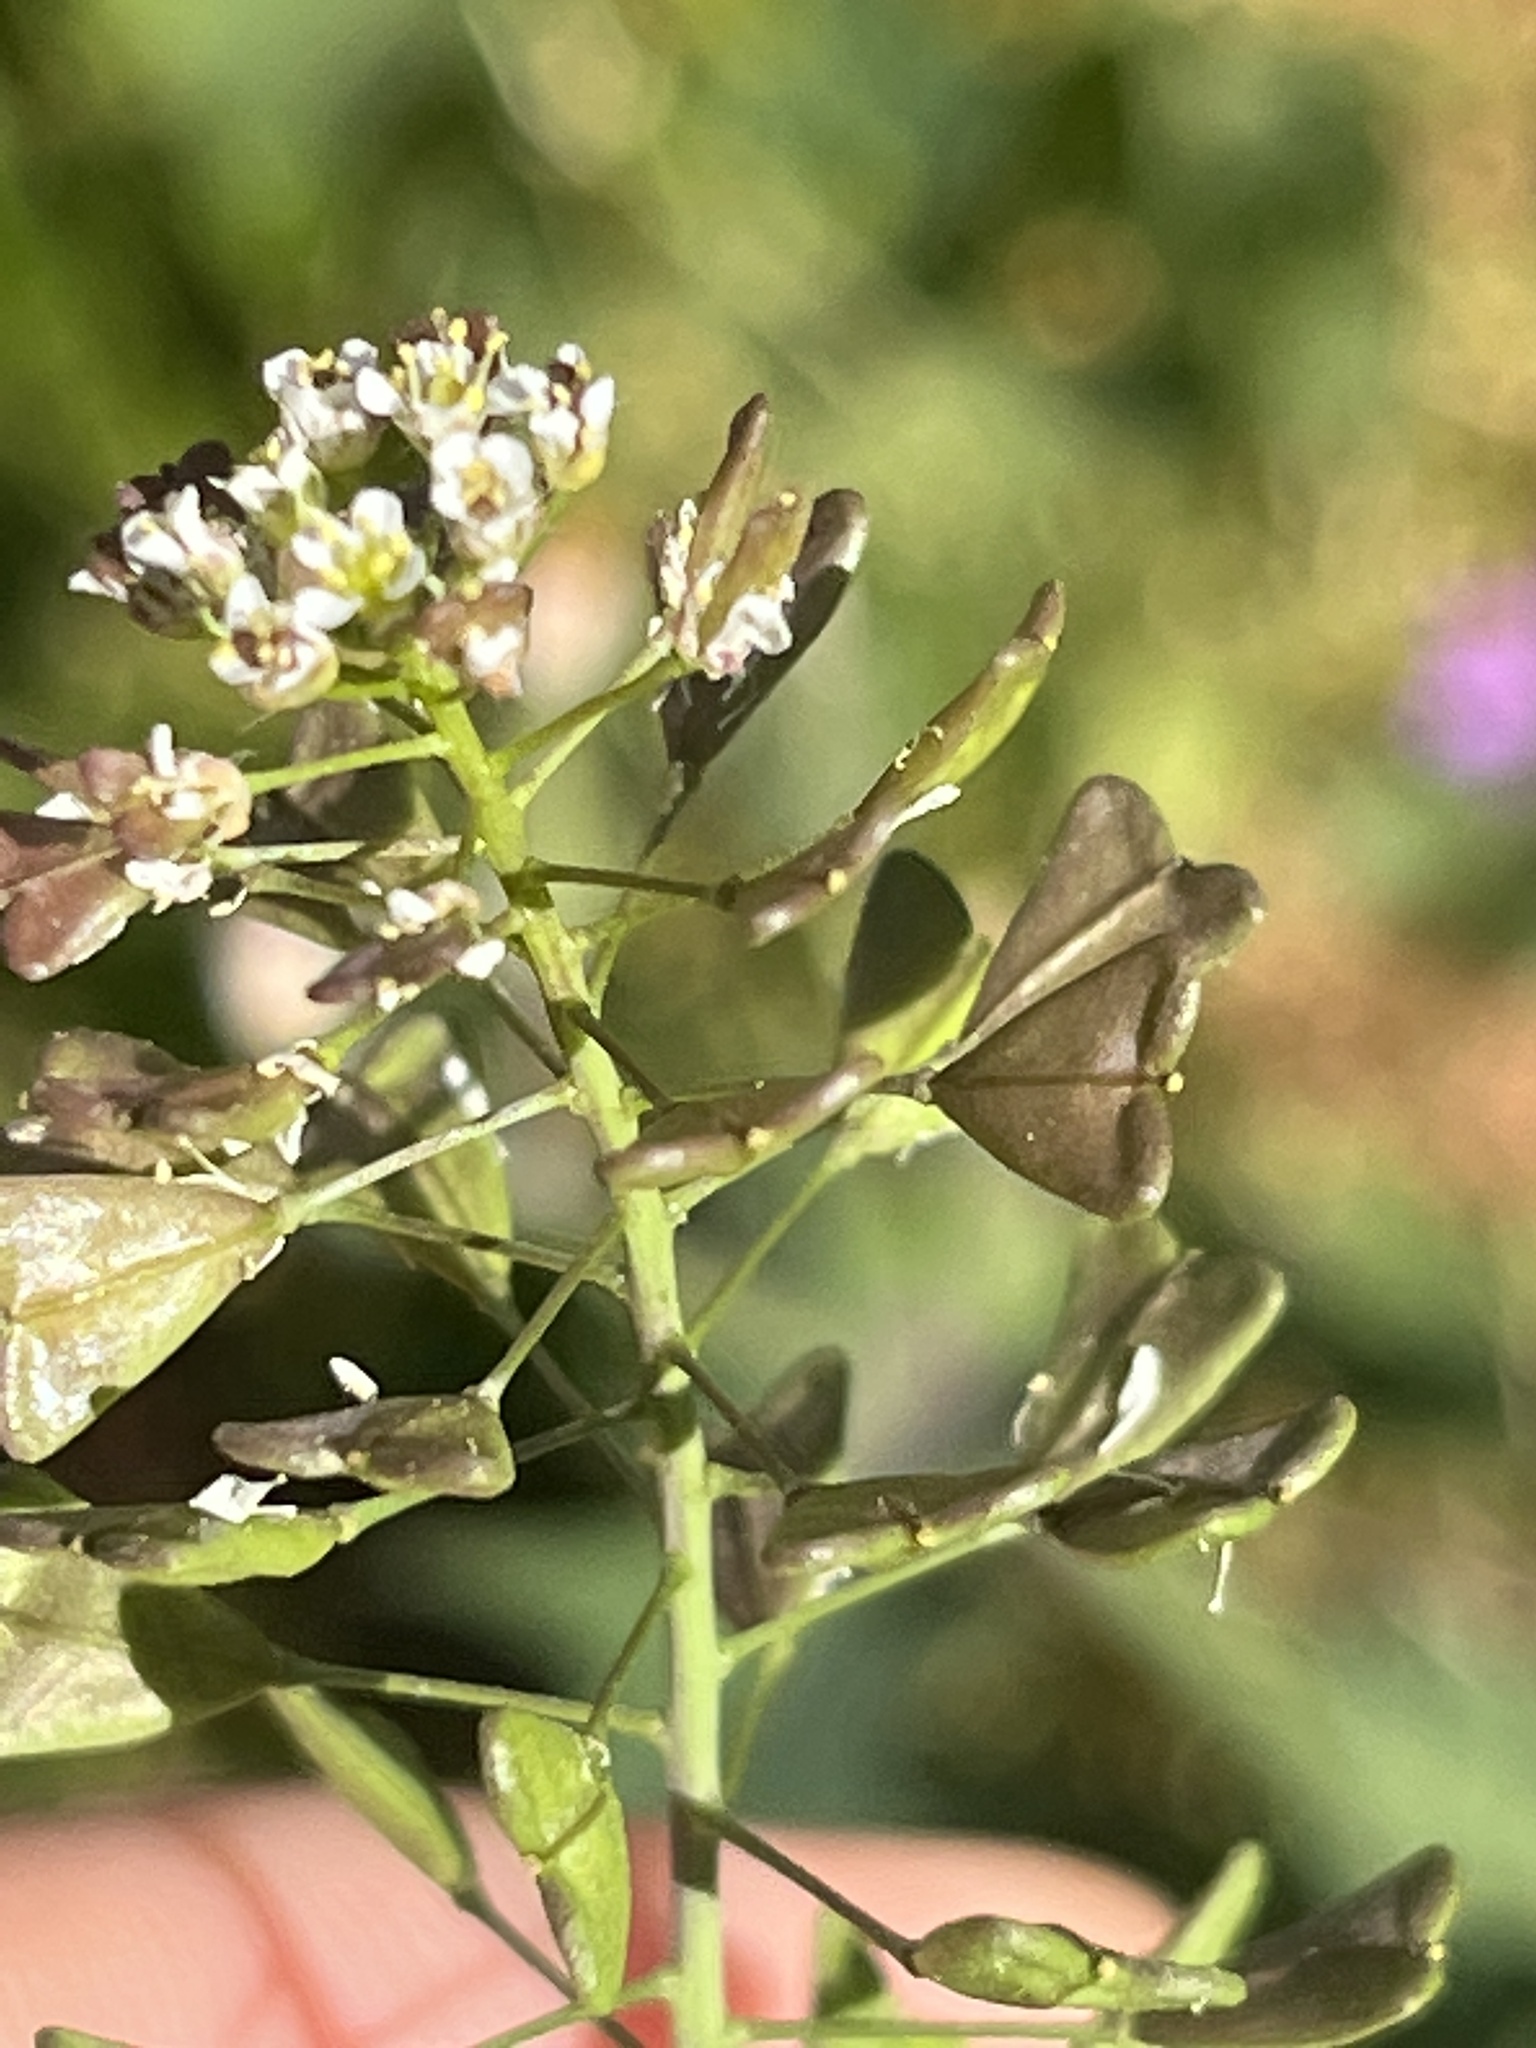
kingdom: Plantae
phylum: Tracheophyta
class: Magnoliopsida
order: Brassicales
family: Brassicaceae
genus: Capsella
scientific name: Capsella bursa-pastoris
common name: Shepherd's purse
